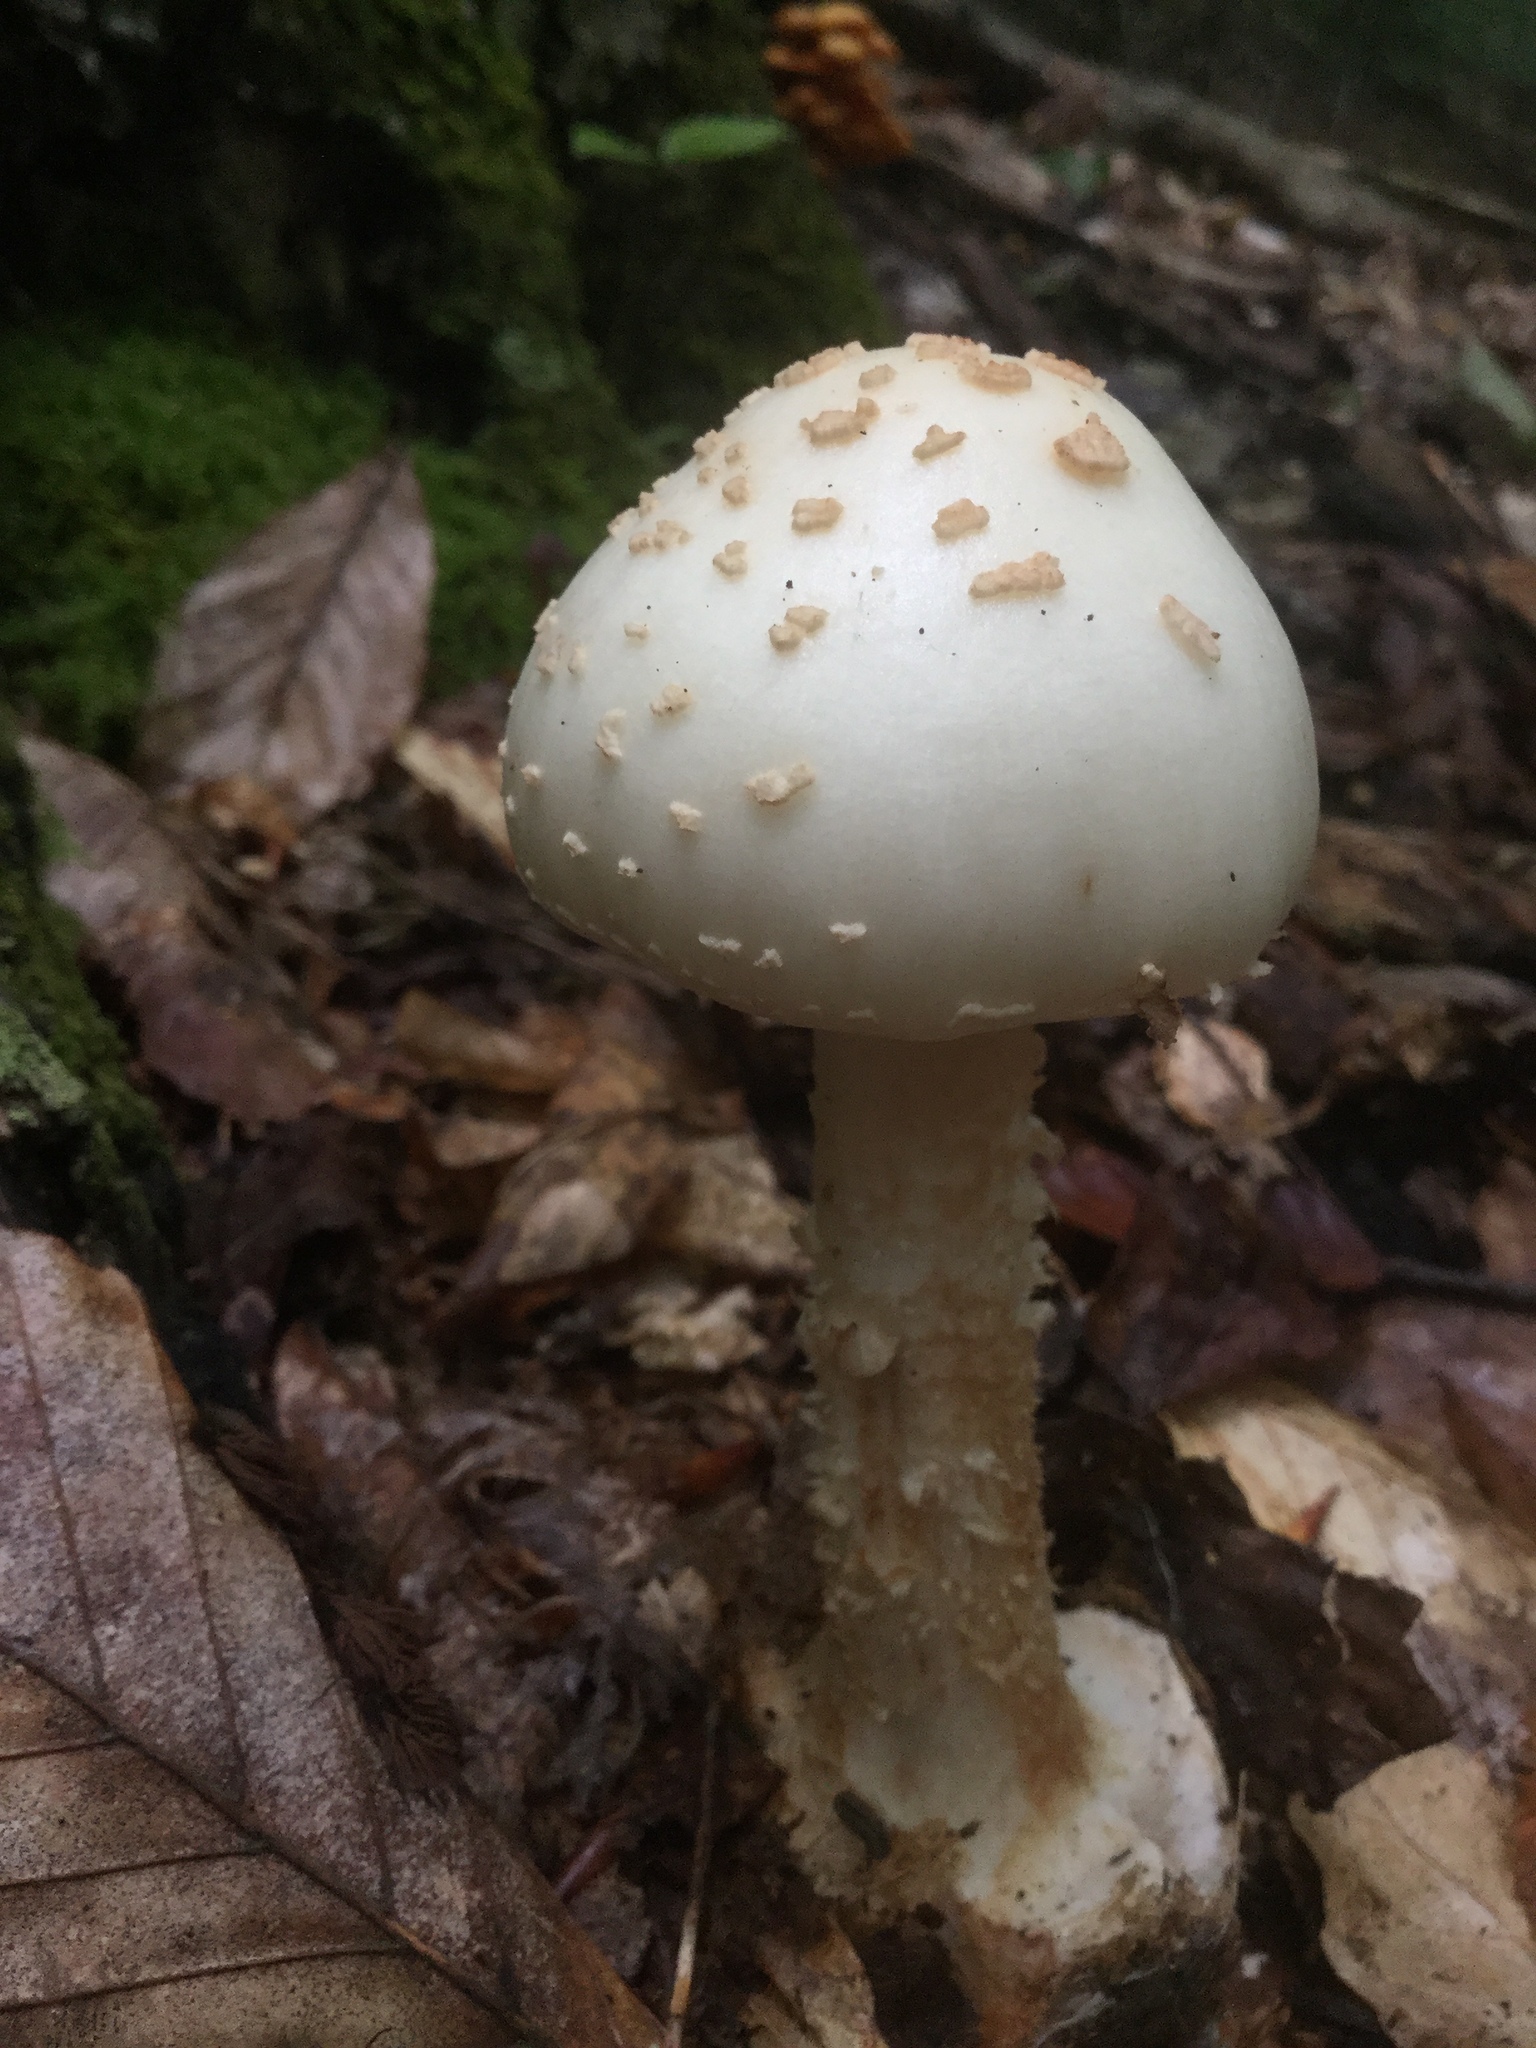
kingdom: Fungi
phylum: Basidiomycota
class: Agaricomycetes
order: Agaricales
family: Amanitaceae
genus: Amanita
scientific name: Amanita brunnescens
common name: Brown american star-footed amanita
